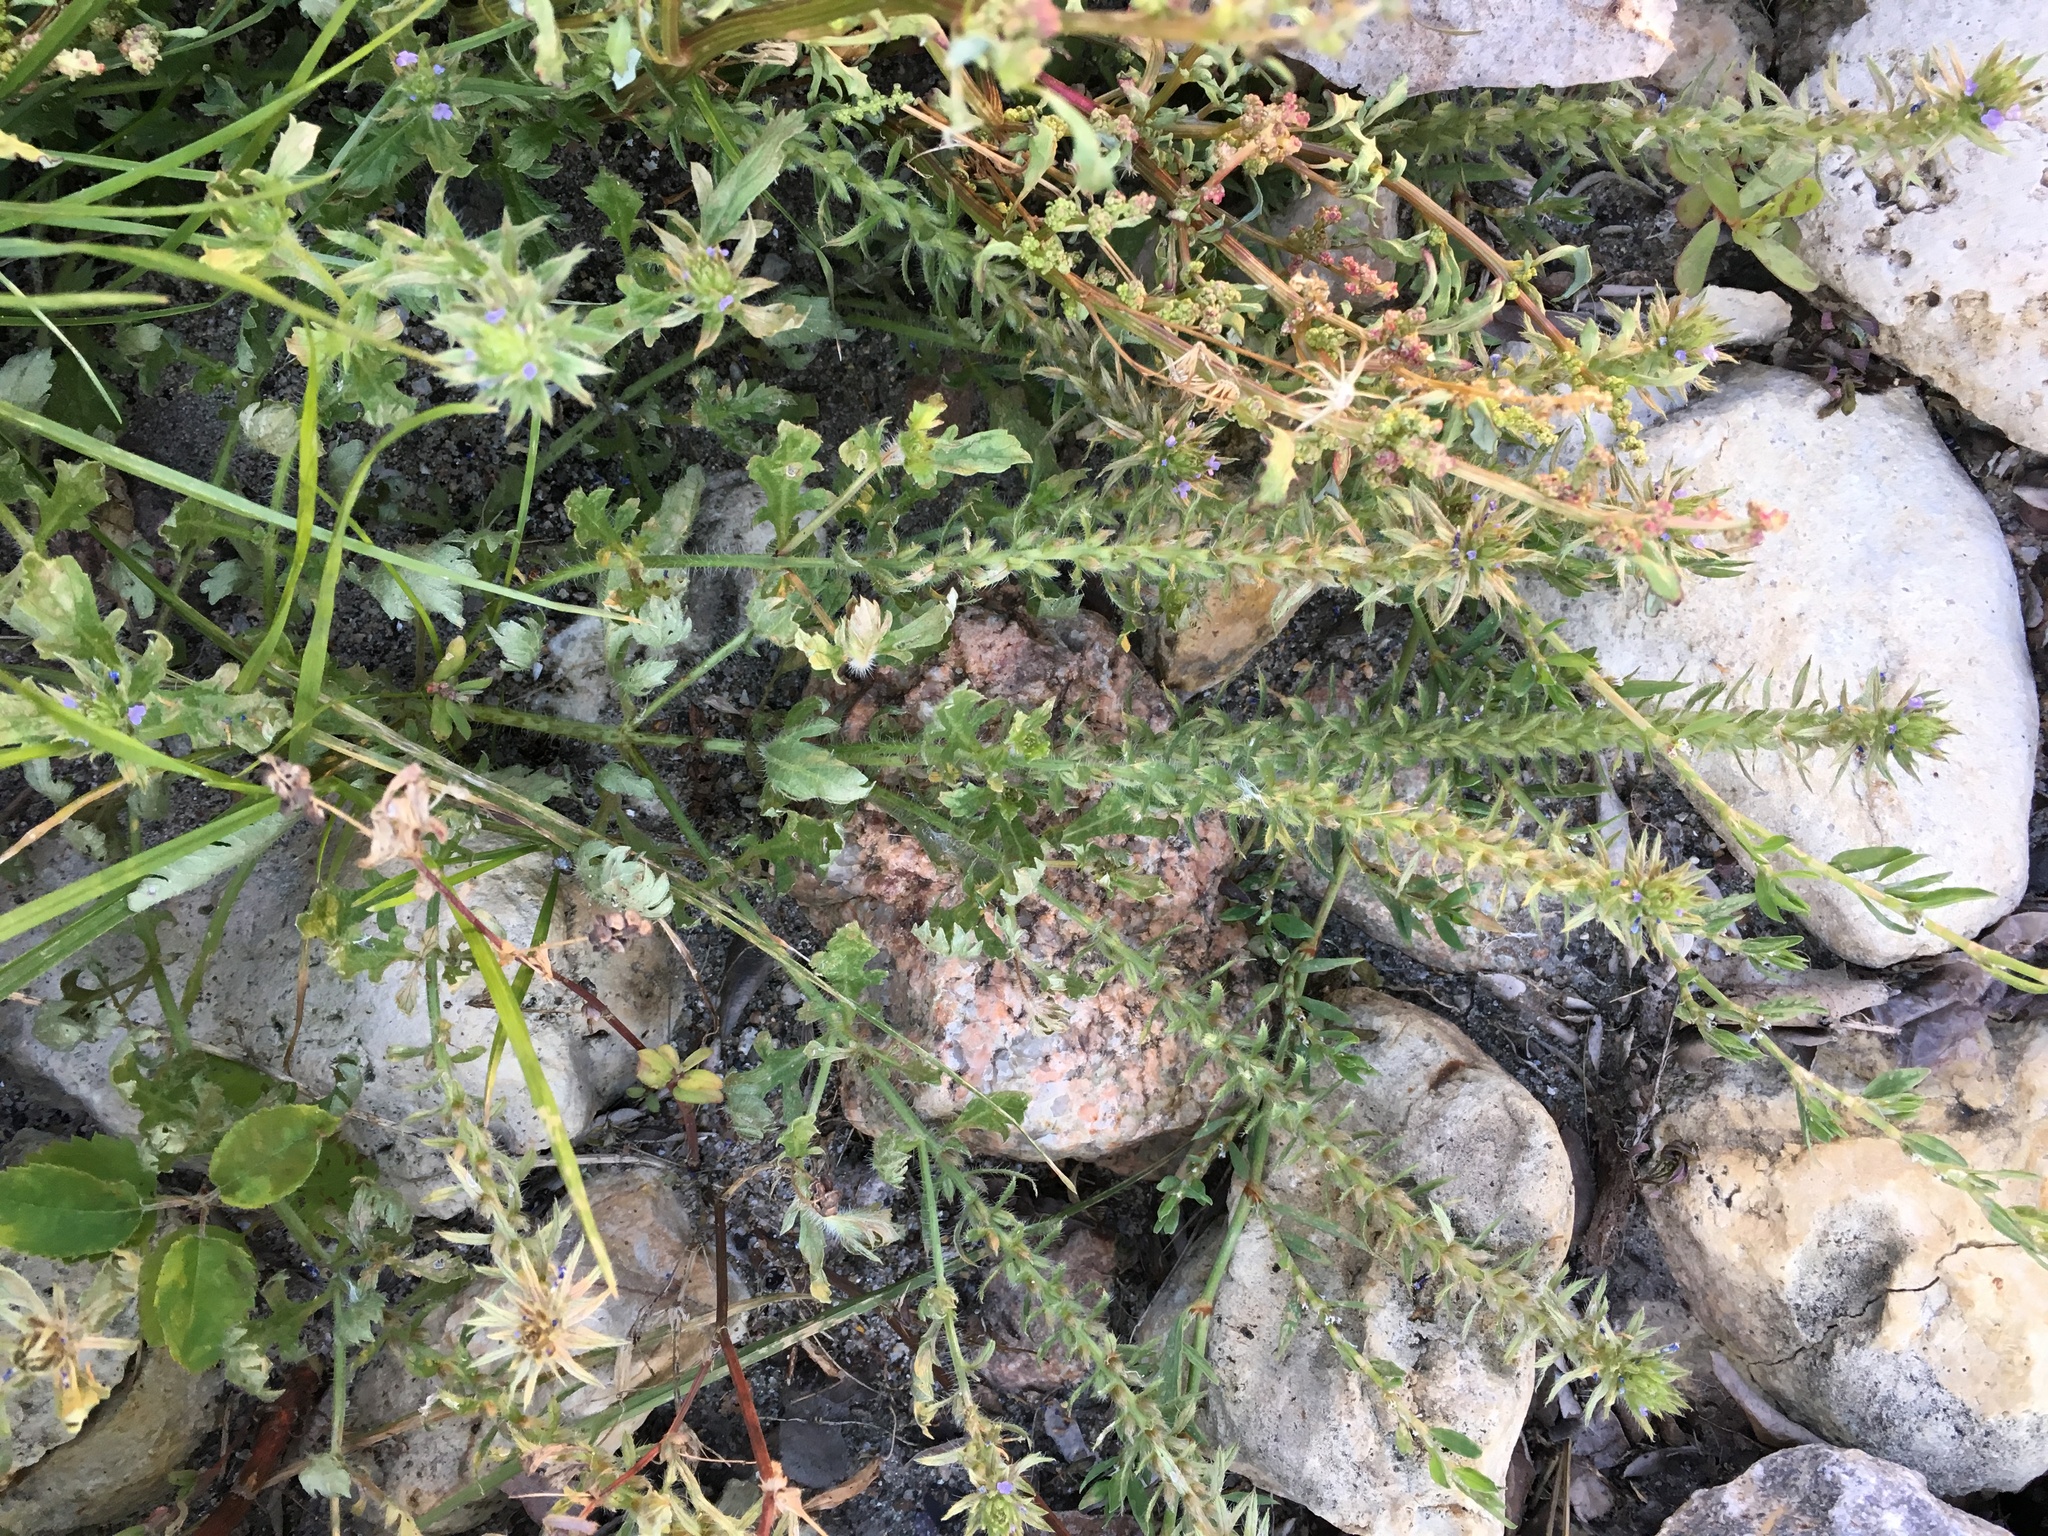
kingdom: Plantae
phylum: Tracheophyta
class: Magnoliopsida
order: Lamiales
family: Verbenaceae
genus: Verbena
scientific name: Verbena bracteata
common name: Bracted vervain
